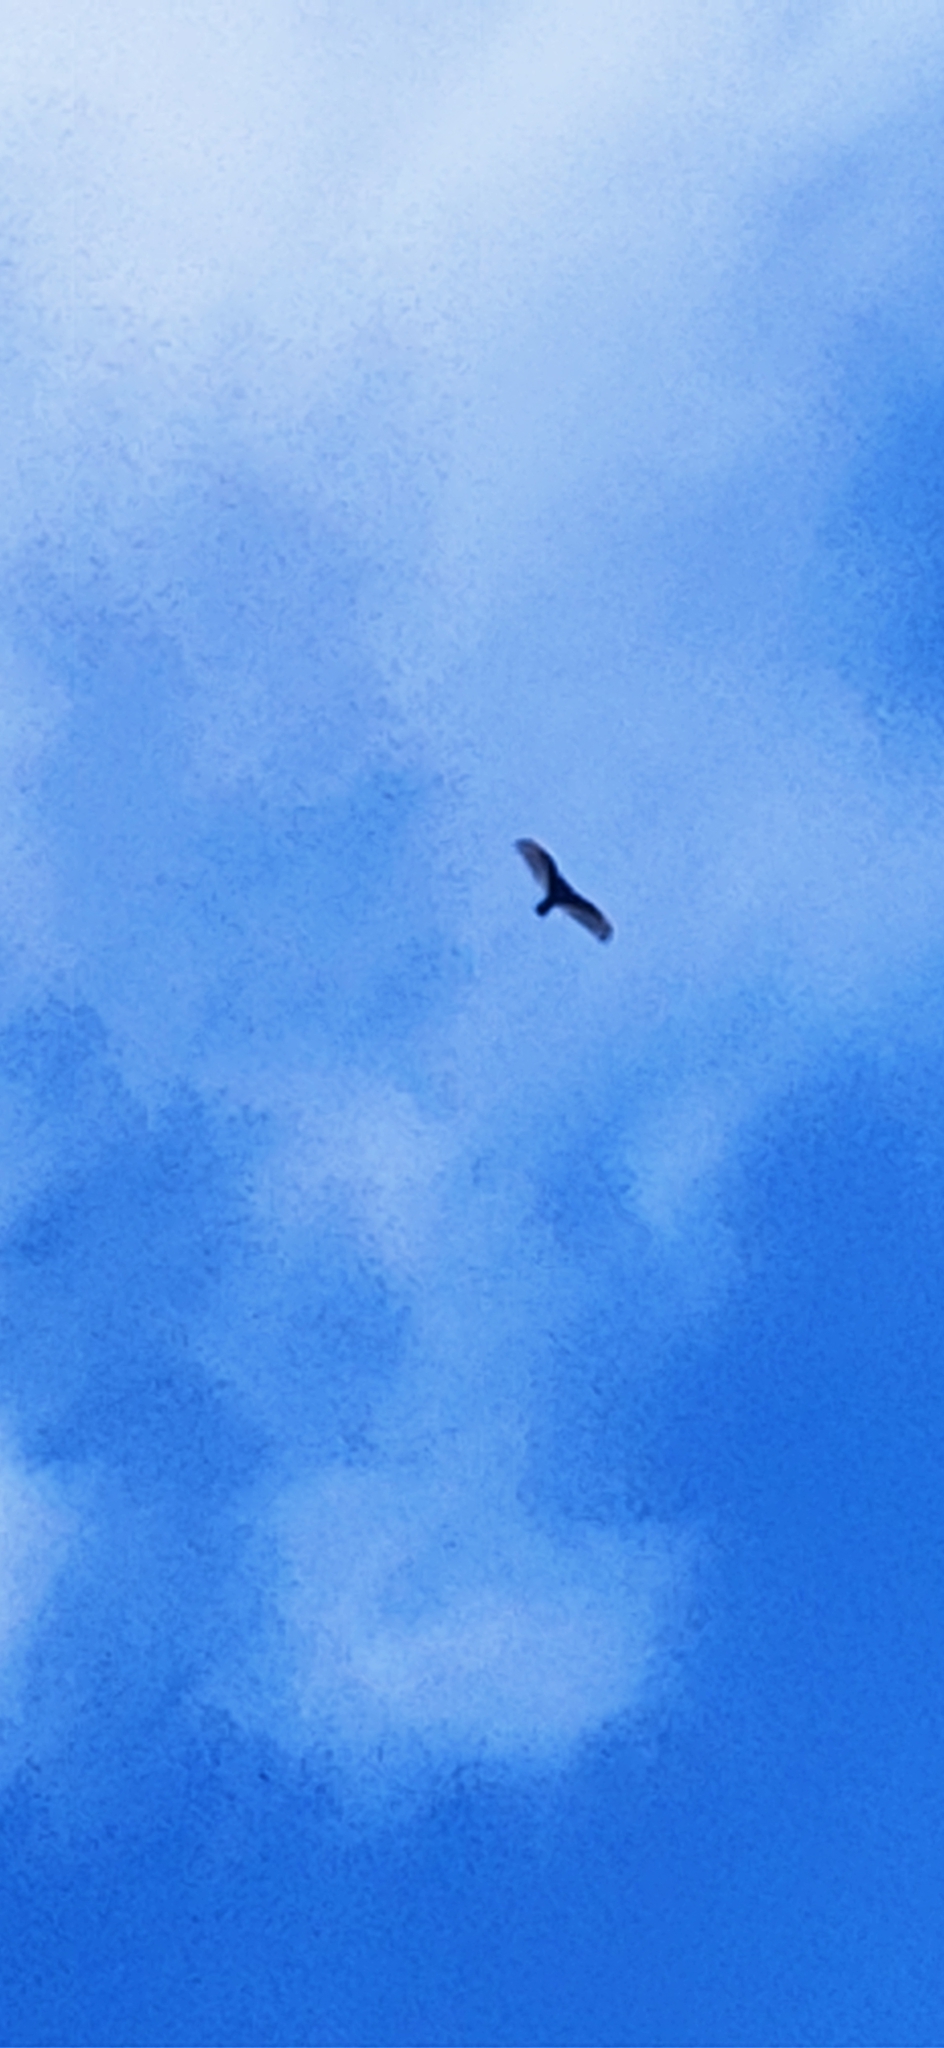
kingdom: Animalia
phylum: Chordata
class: Aves
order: Accipitriformes
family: Cathartidae
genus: Cathartes
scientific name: Cathartes aura
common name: Turkey vulture
